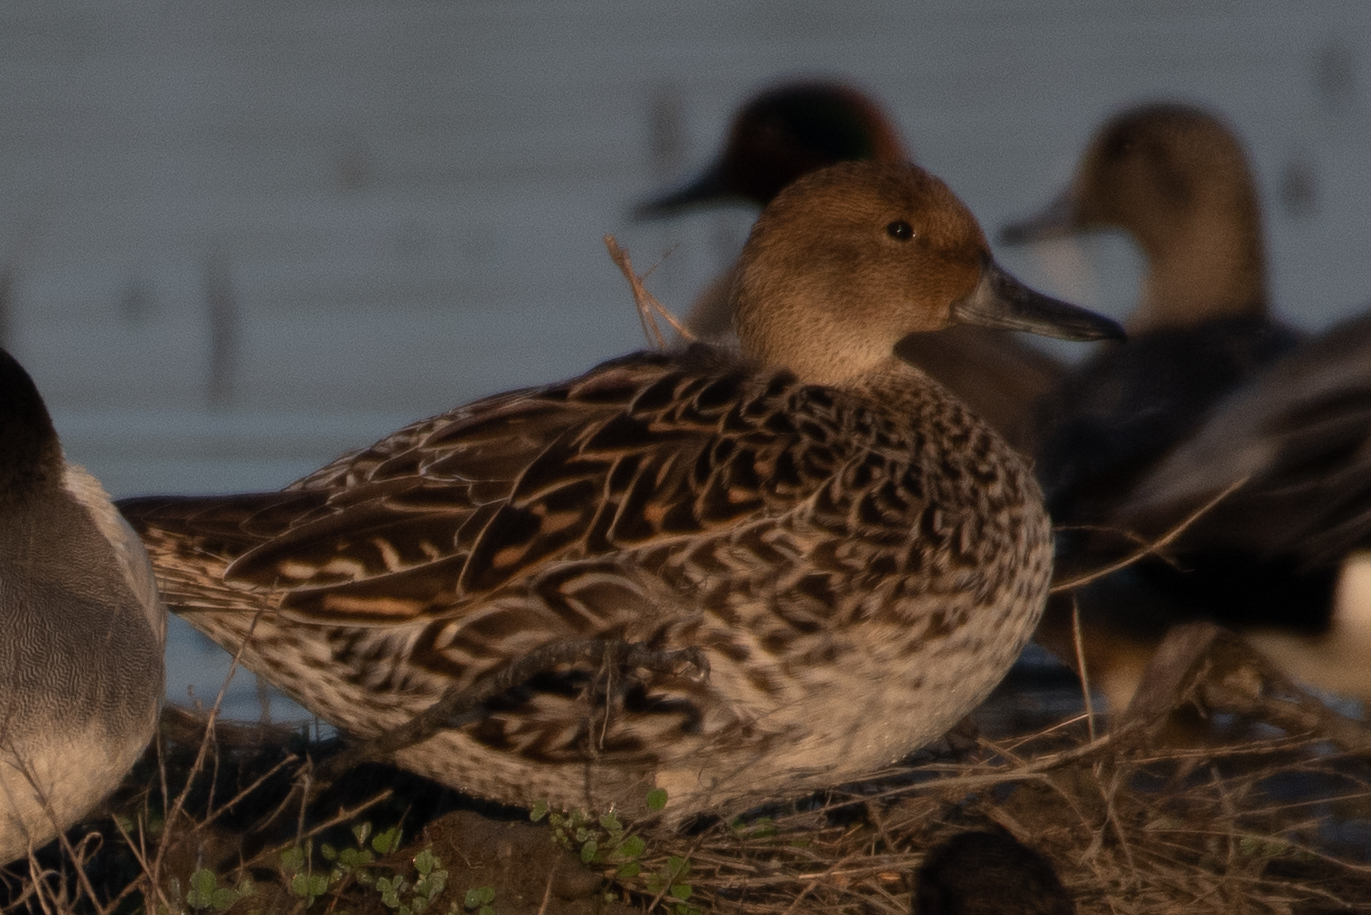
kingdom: Animalia
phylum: Chordata
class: Aves
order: Anseriformes
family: Anatidae
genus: Anas
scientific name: Anas acuta
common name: Northern pintail
